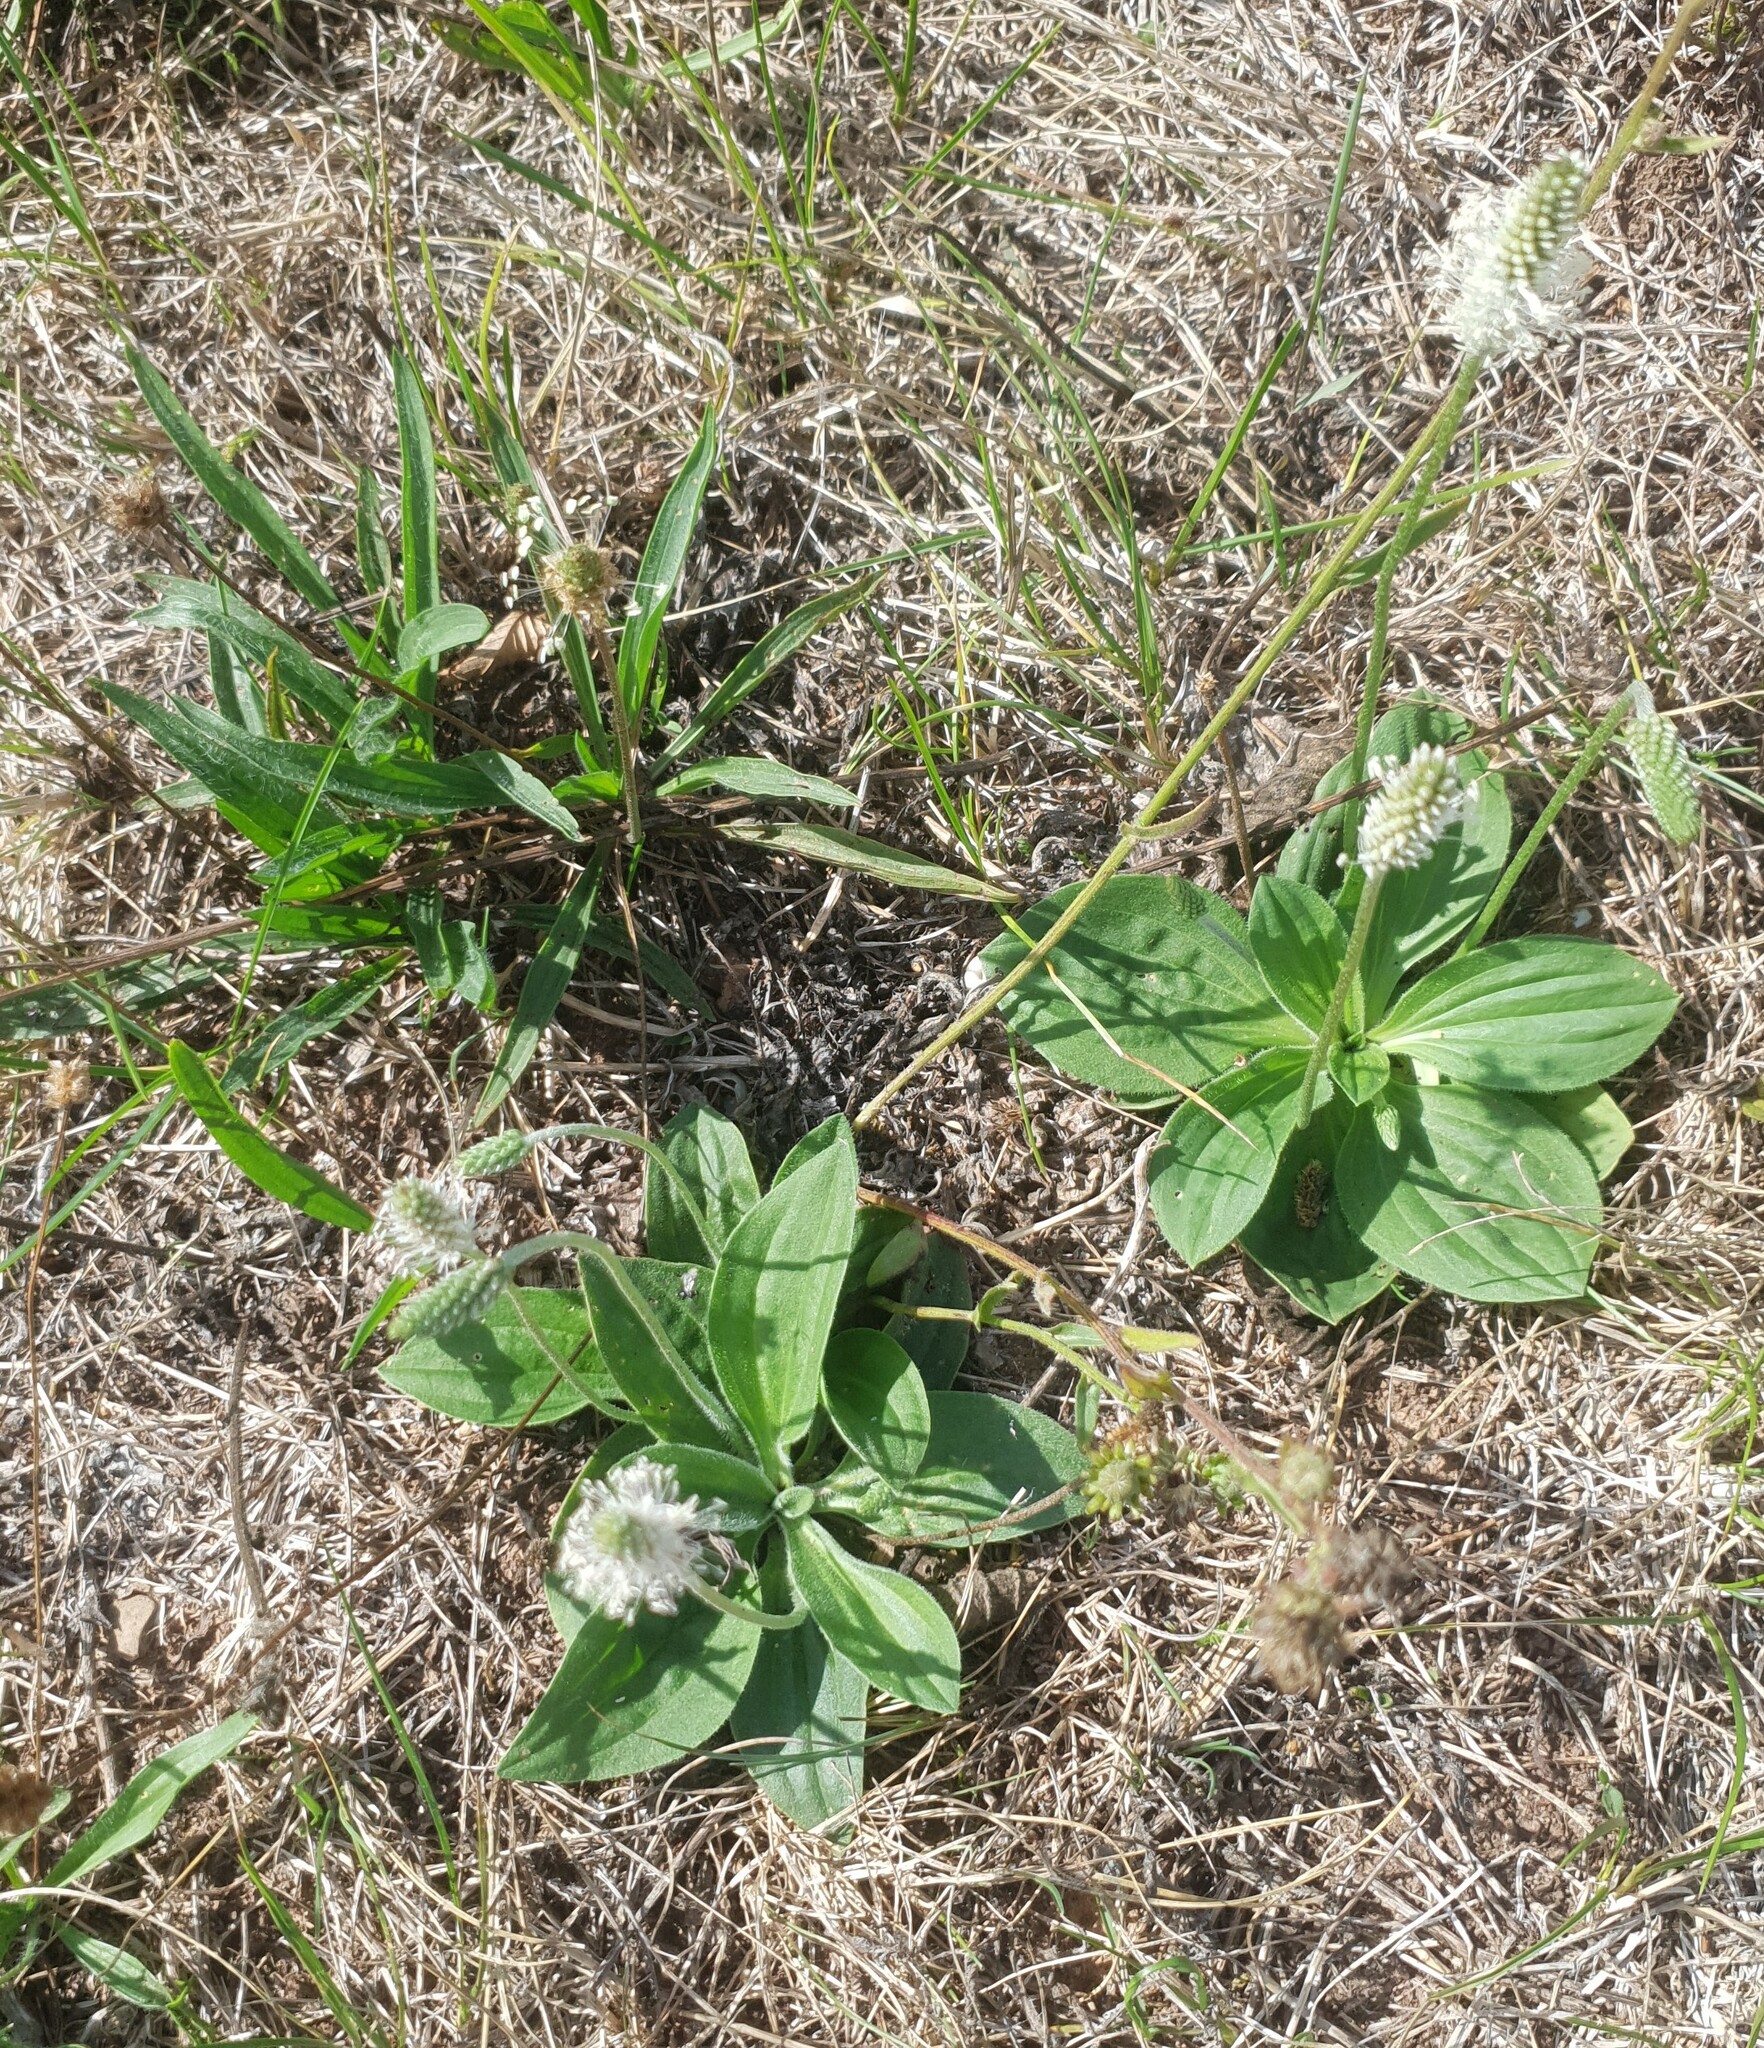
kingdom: Plantae
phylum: Tracheophyta
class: Magnoliopsida
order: Lamiales
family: Plantaginaceae
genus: Plantago
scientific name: Plantago media
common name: Hoary plantain
